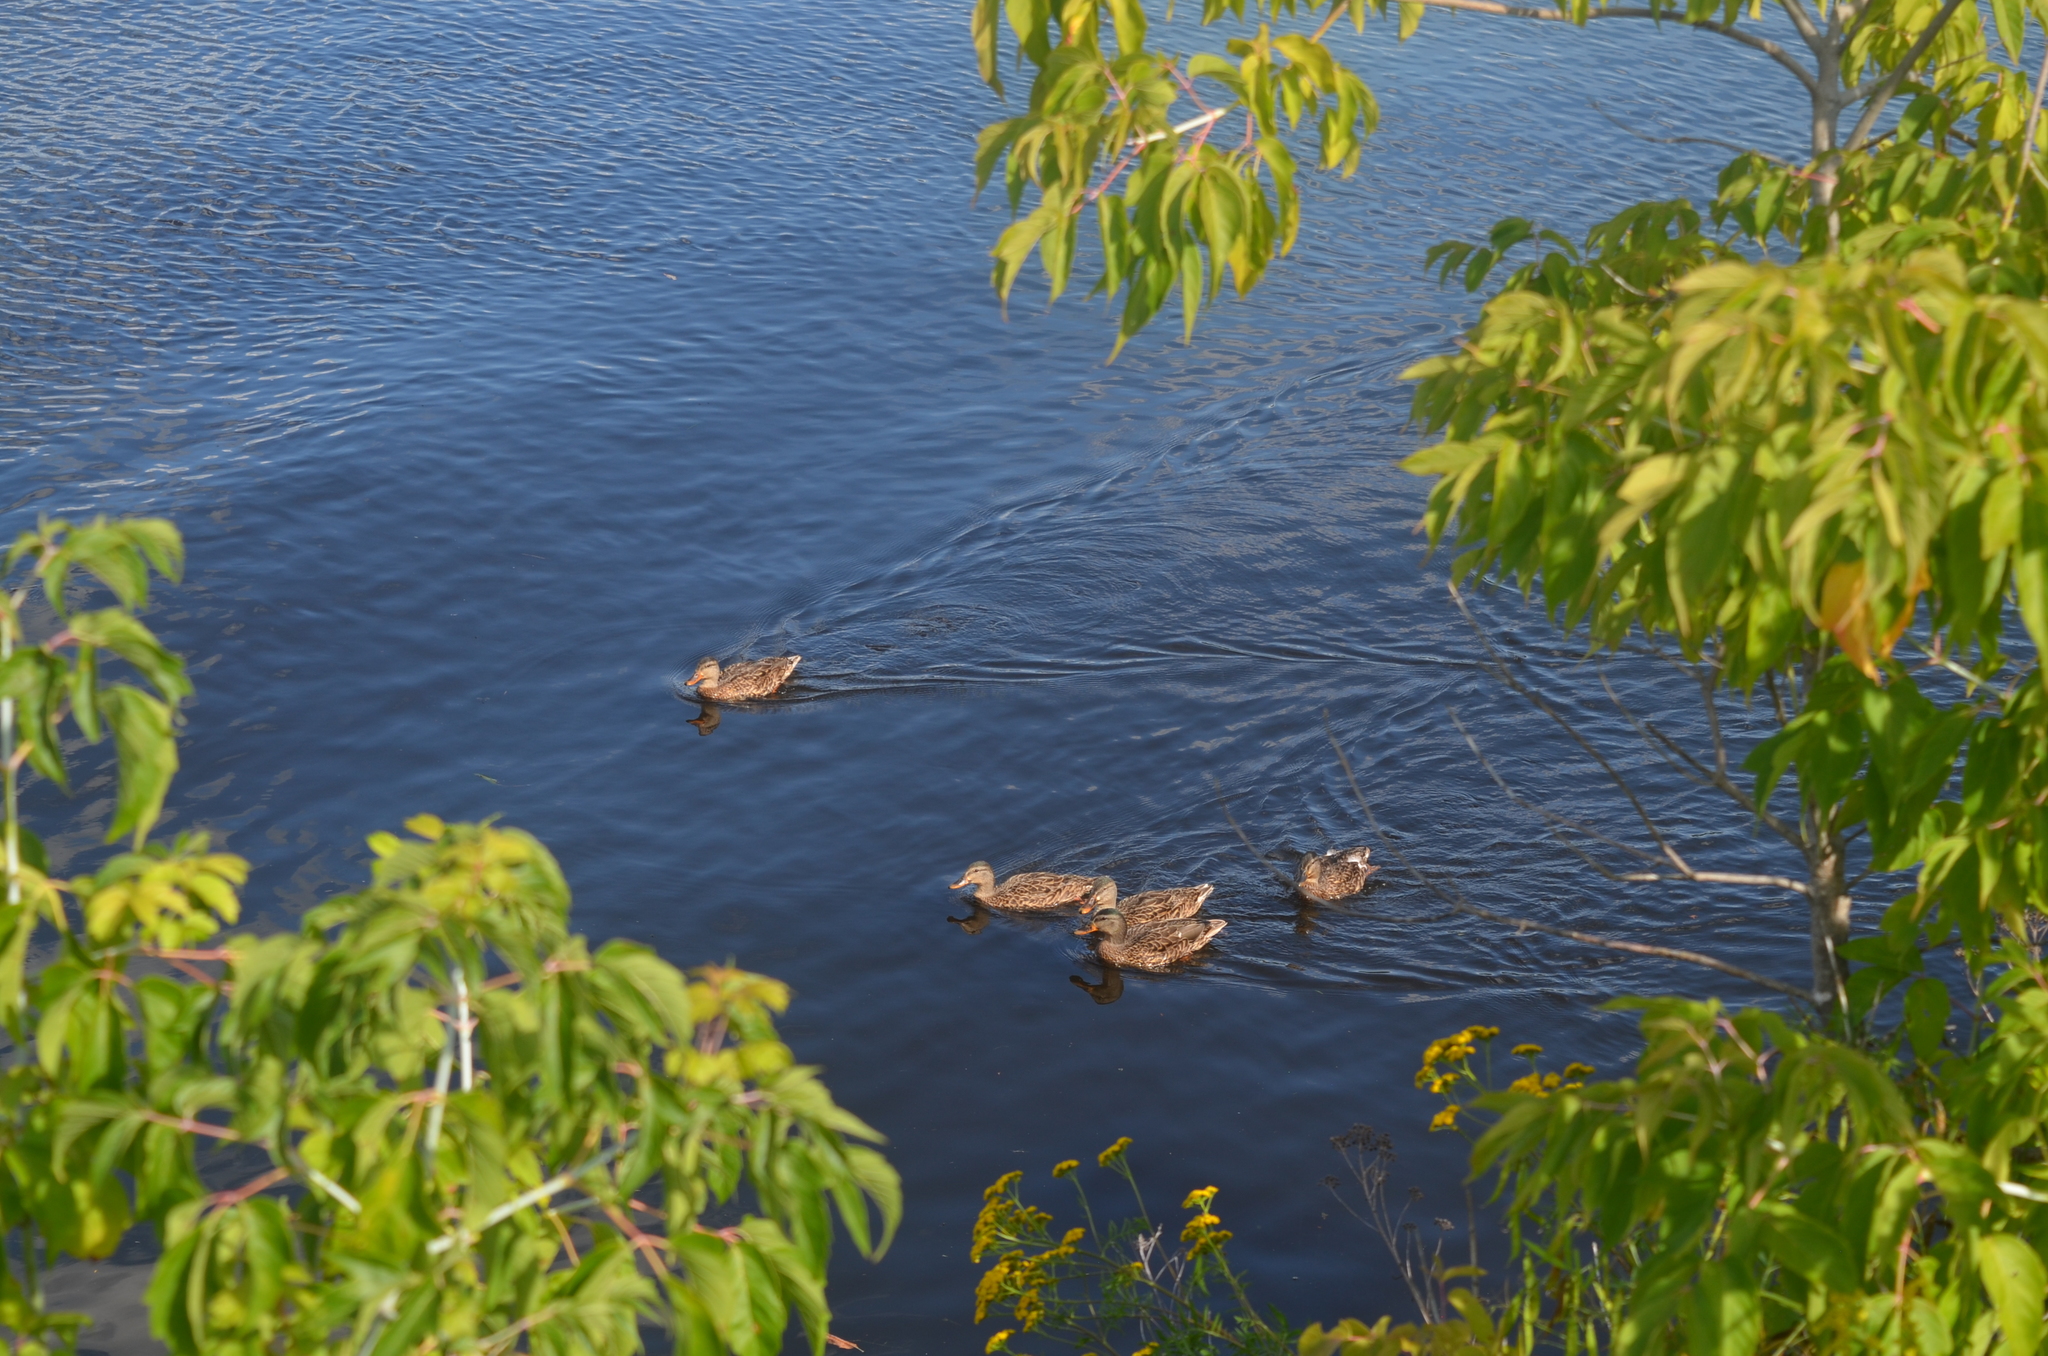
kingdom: Animalia
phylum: Chordata
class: Aves
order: Anseriformes
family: Anatidae
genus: Anas
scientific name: Anas platyrhynchos
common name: Mallard
